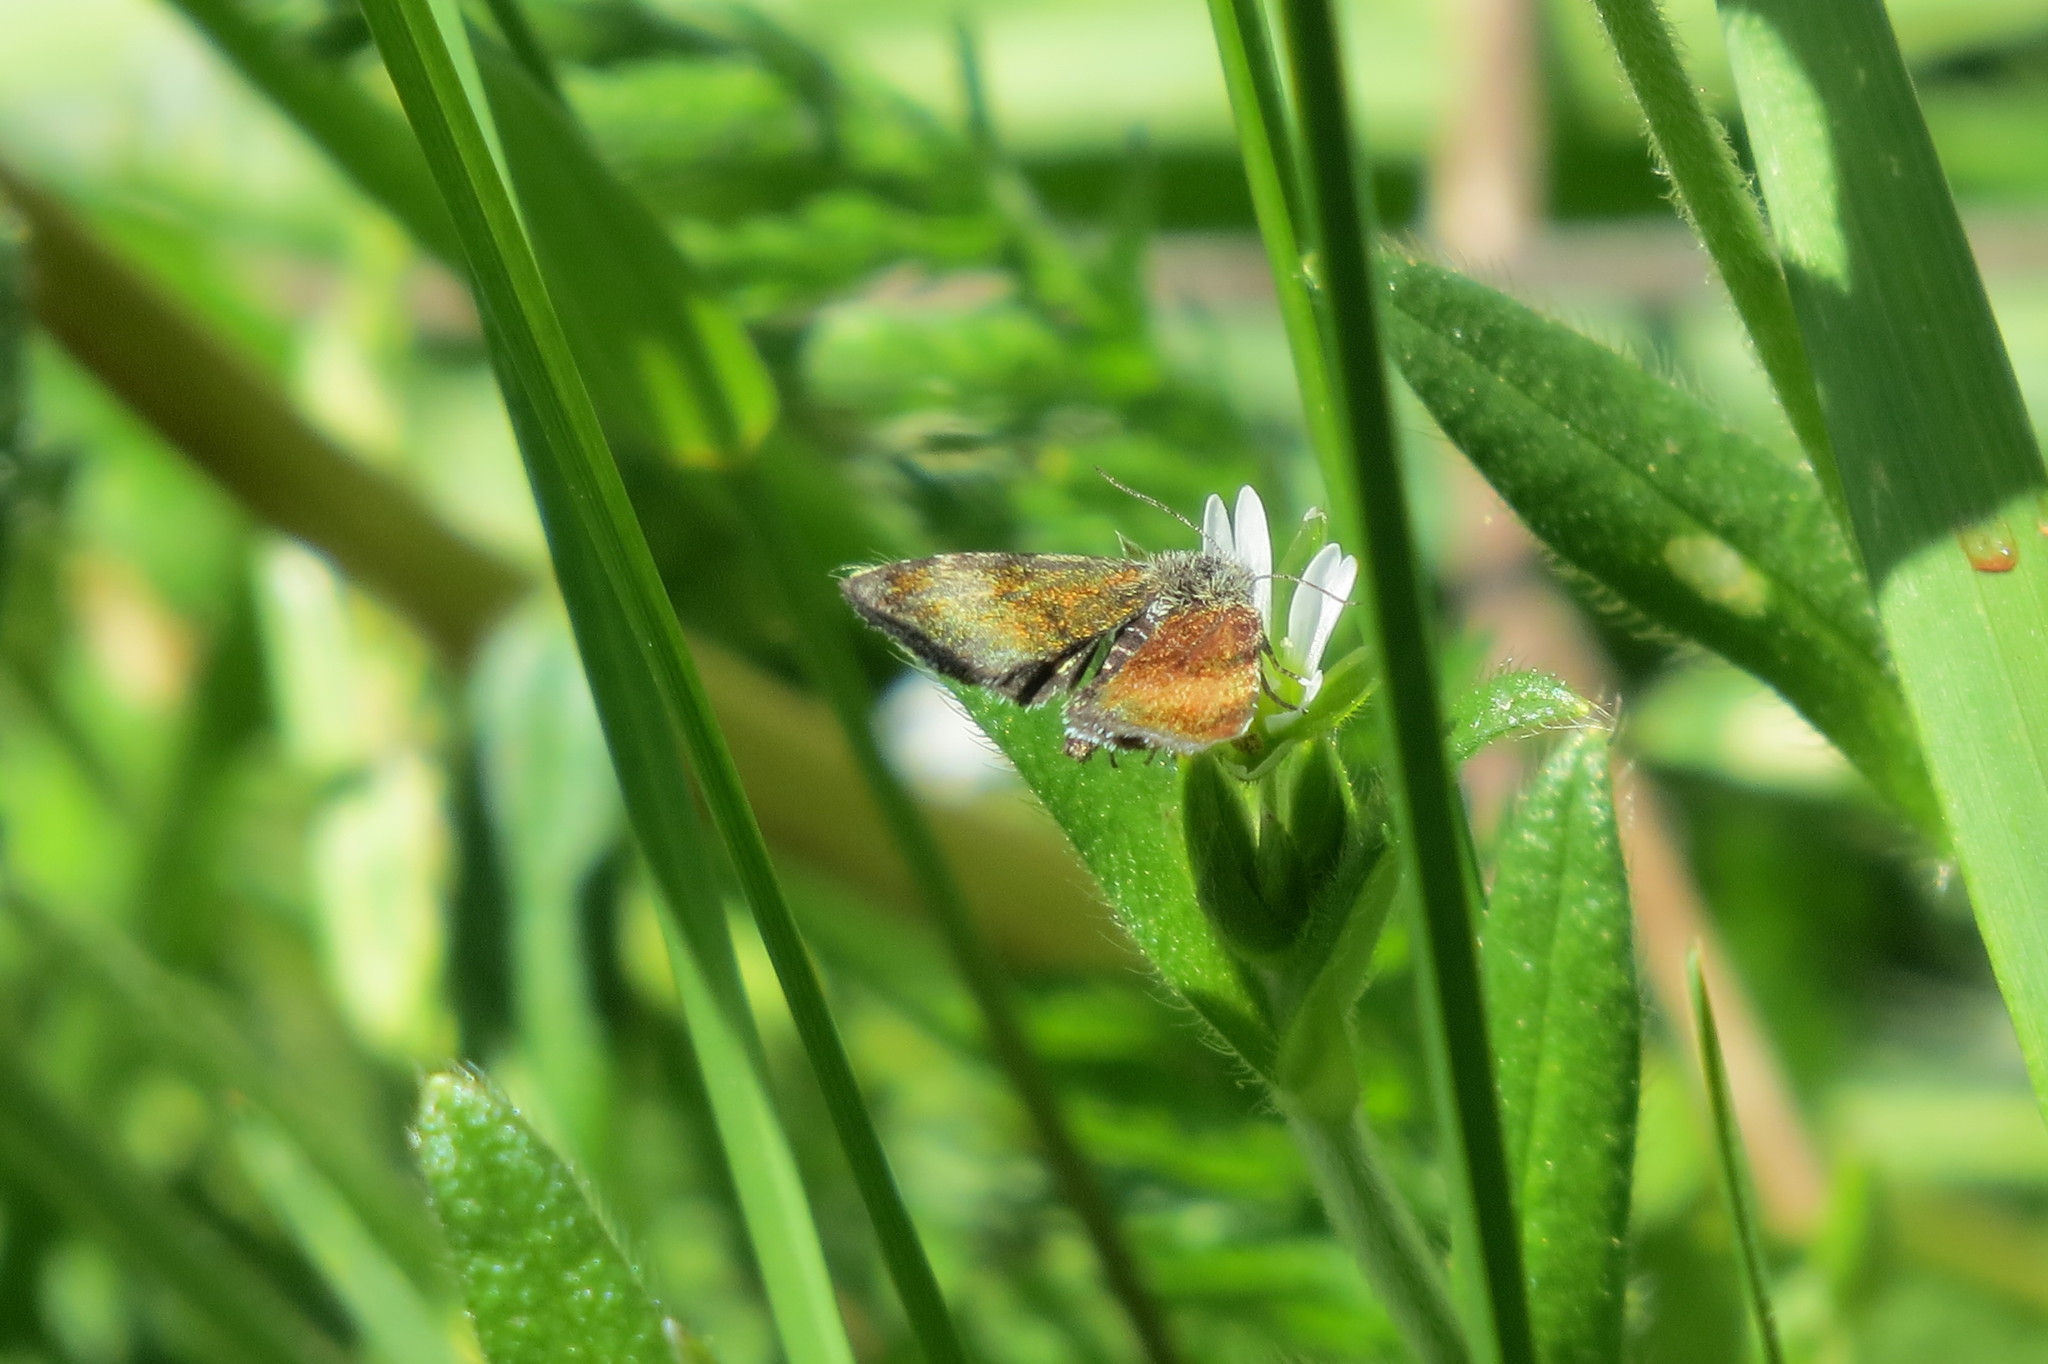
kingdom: Animalia
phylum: Arthropoda
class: Insecta
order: Lepidoptera
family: Noctuidae
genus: Panemeria
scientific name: Panemeria tenebrata
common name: Small yellow underwing
